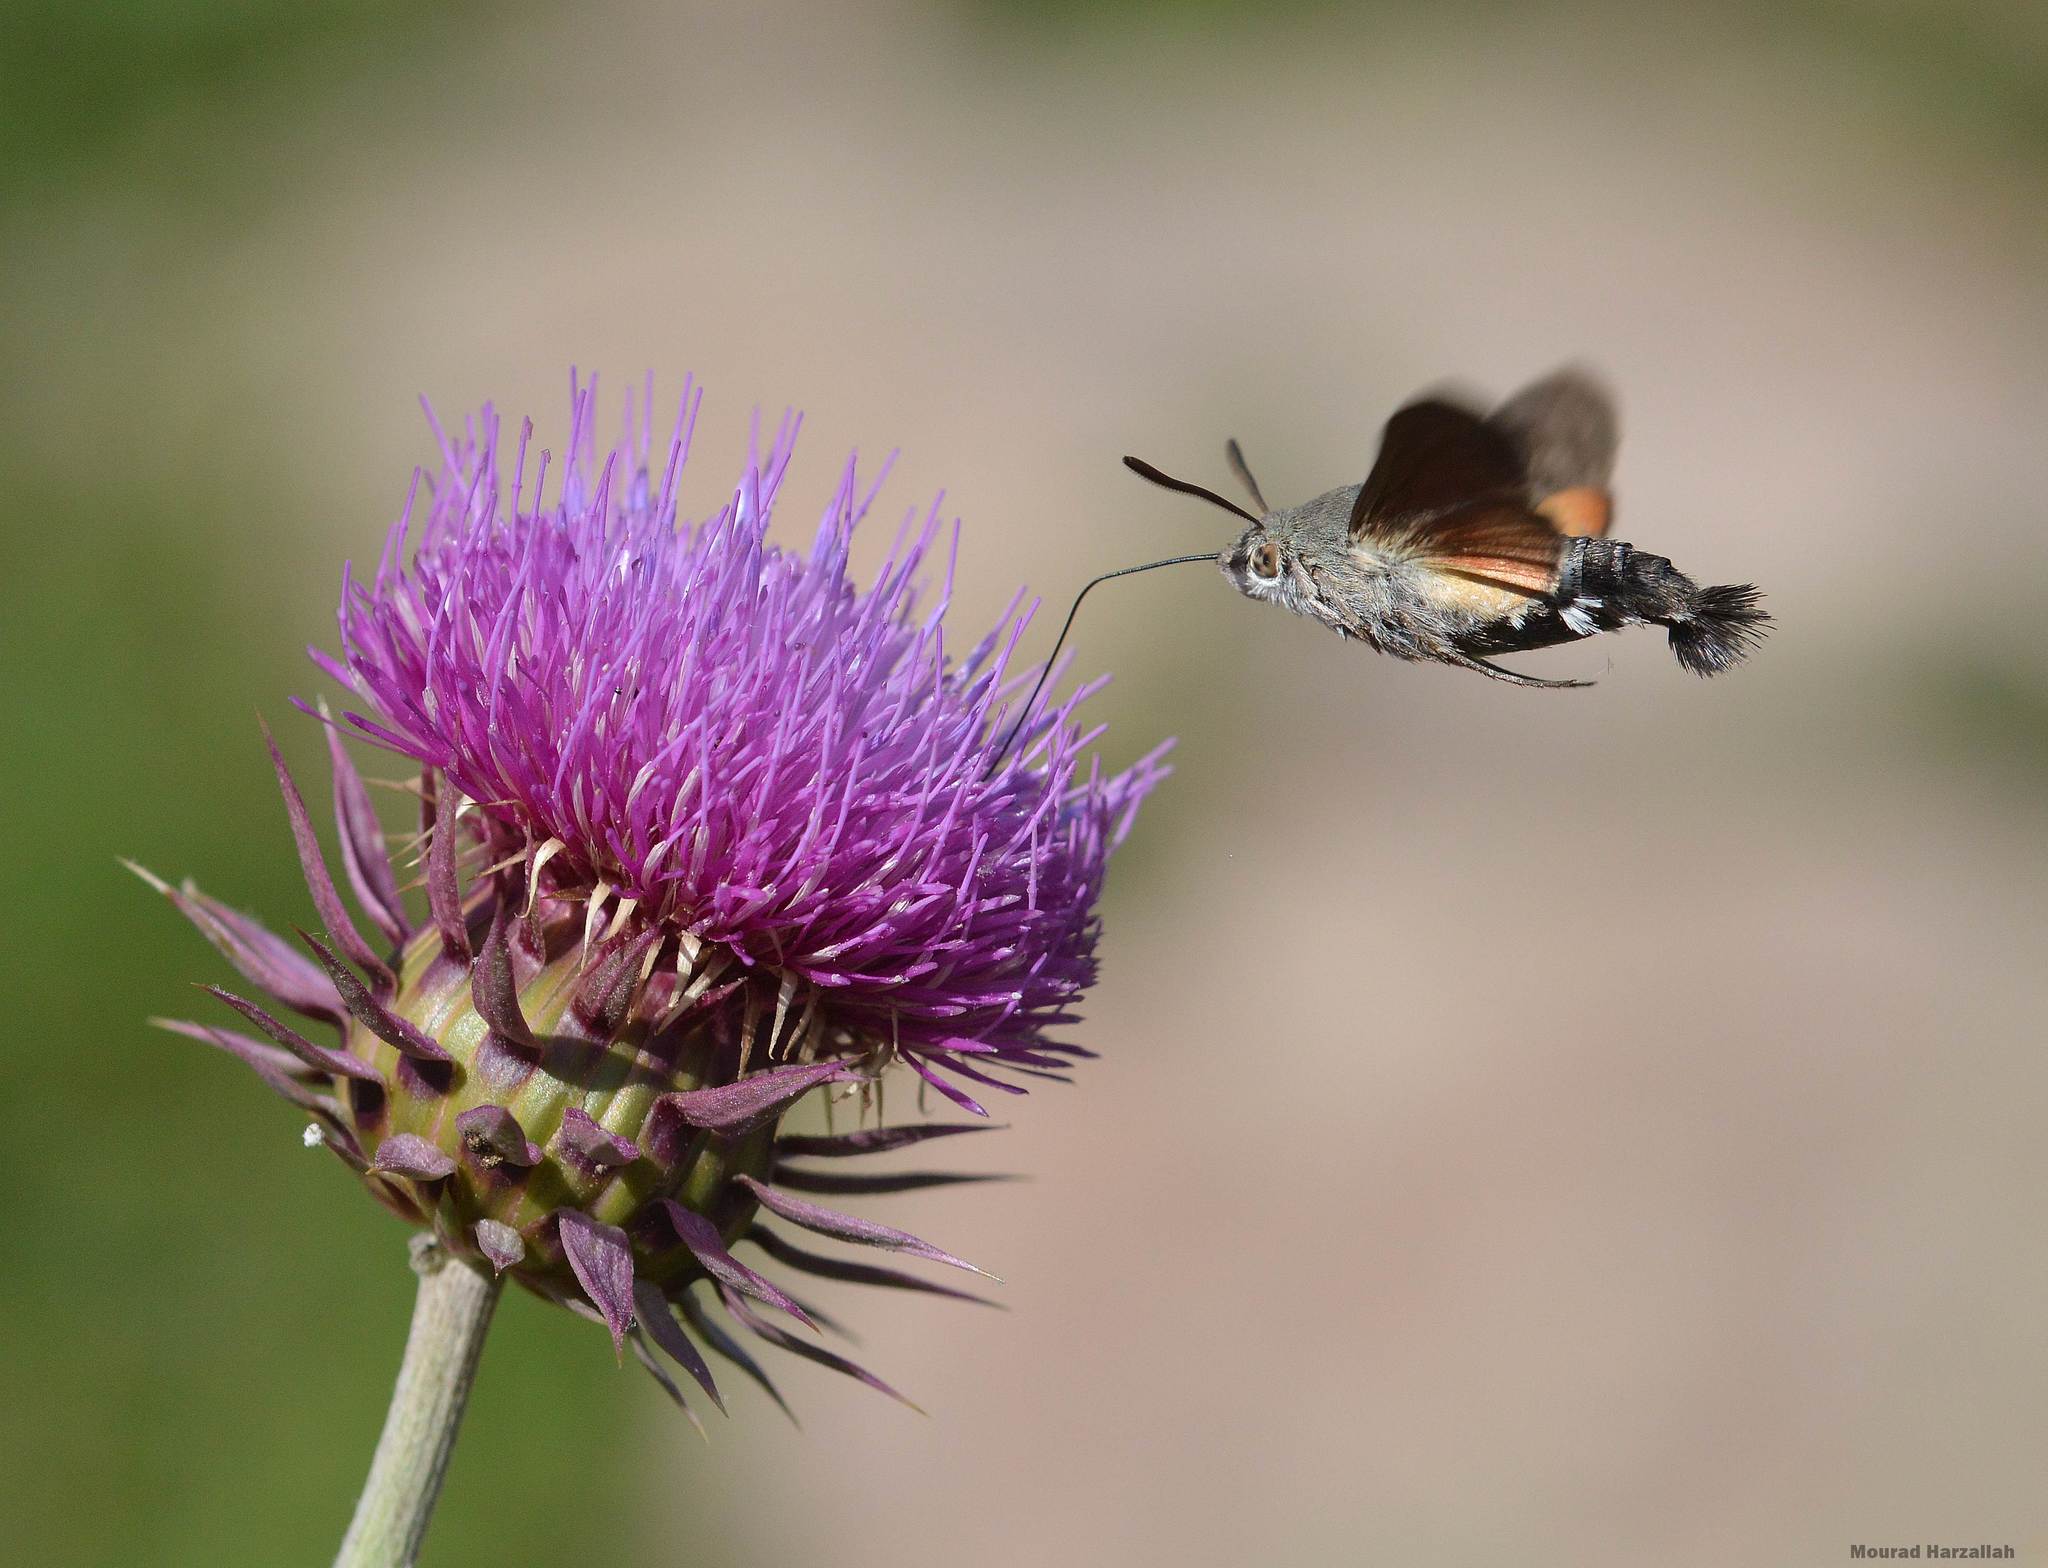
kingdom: Animalia
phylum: Arthropoda
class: Insecta
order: Lepidoptera
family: Sphingidae
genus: Macroglossum
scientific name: Macroglossum stellatarum
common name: Humming-bird hawk-moth
